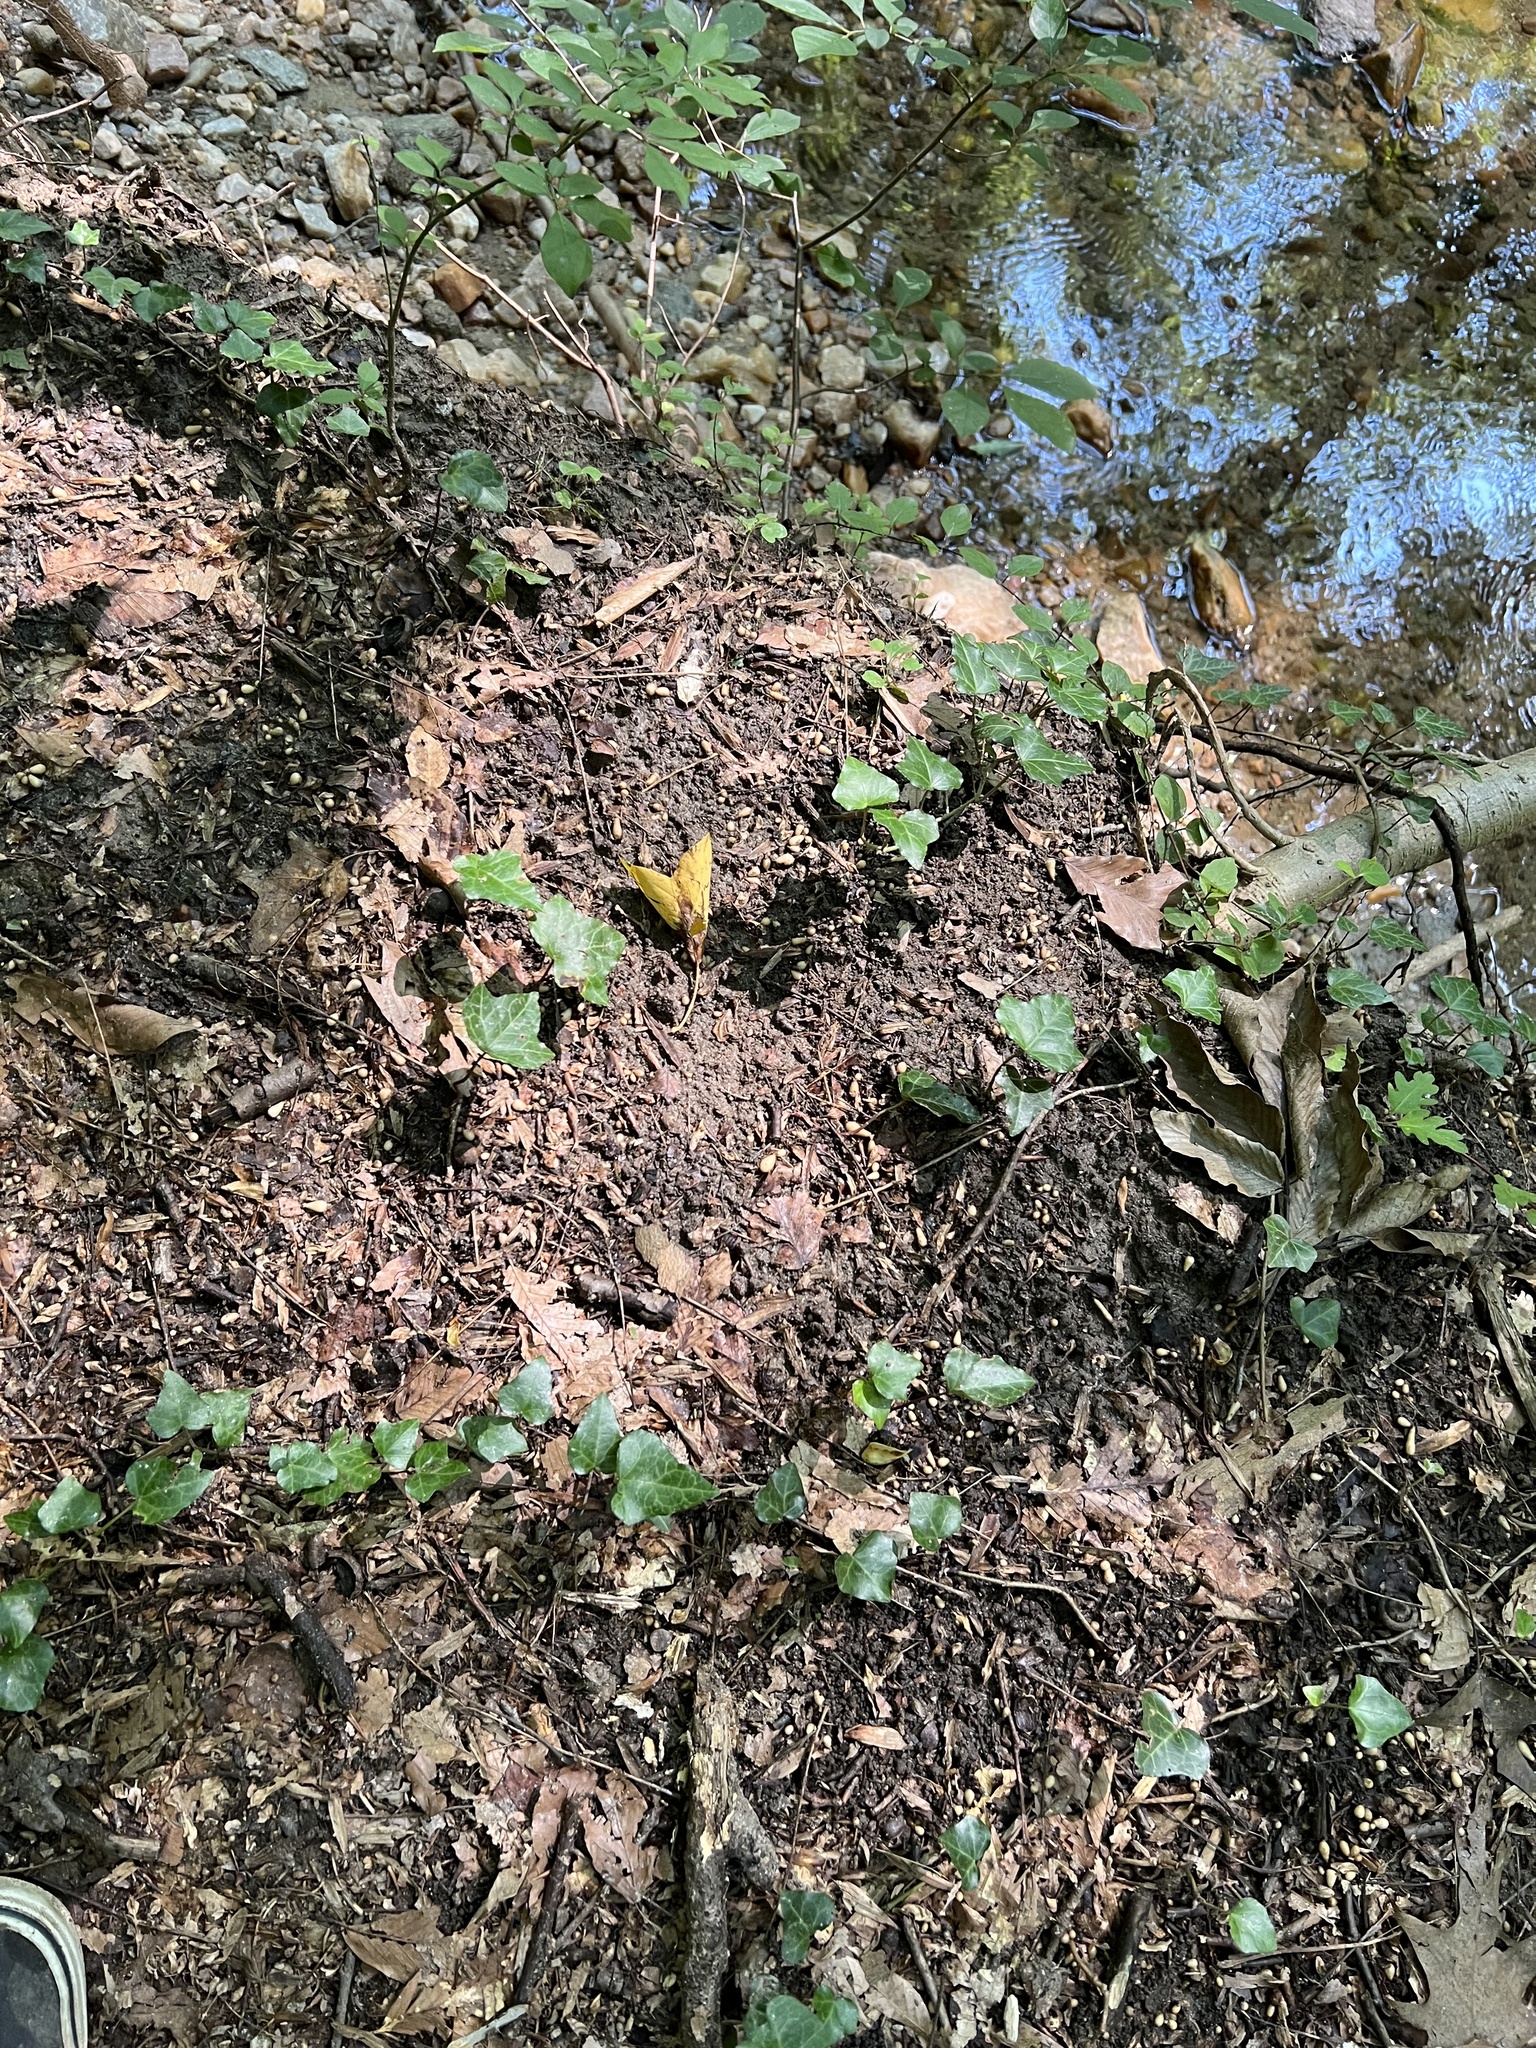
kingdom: Plantae
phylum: Tracheophyta
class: Magnoliopsida
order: Ranunculales
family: Ranunculaceae
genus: Ficaria
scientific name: Ficaria verna
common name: Lesser celandine
